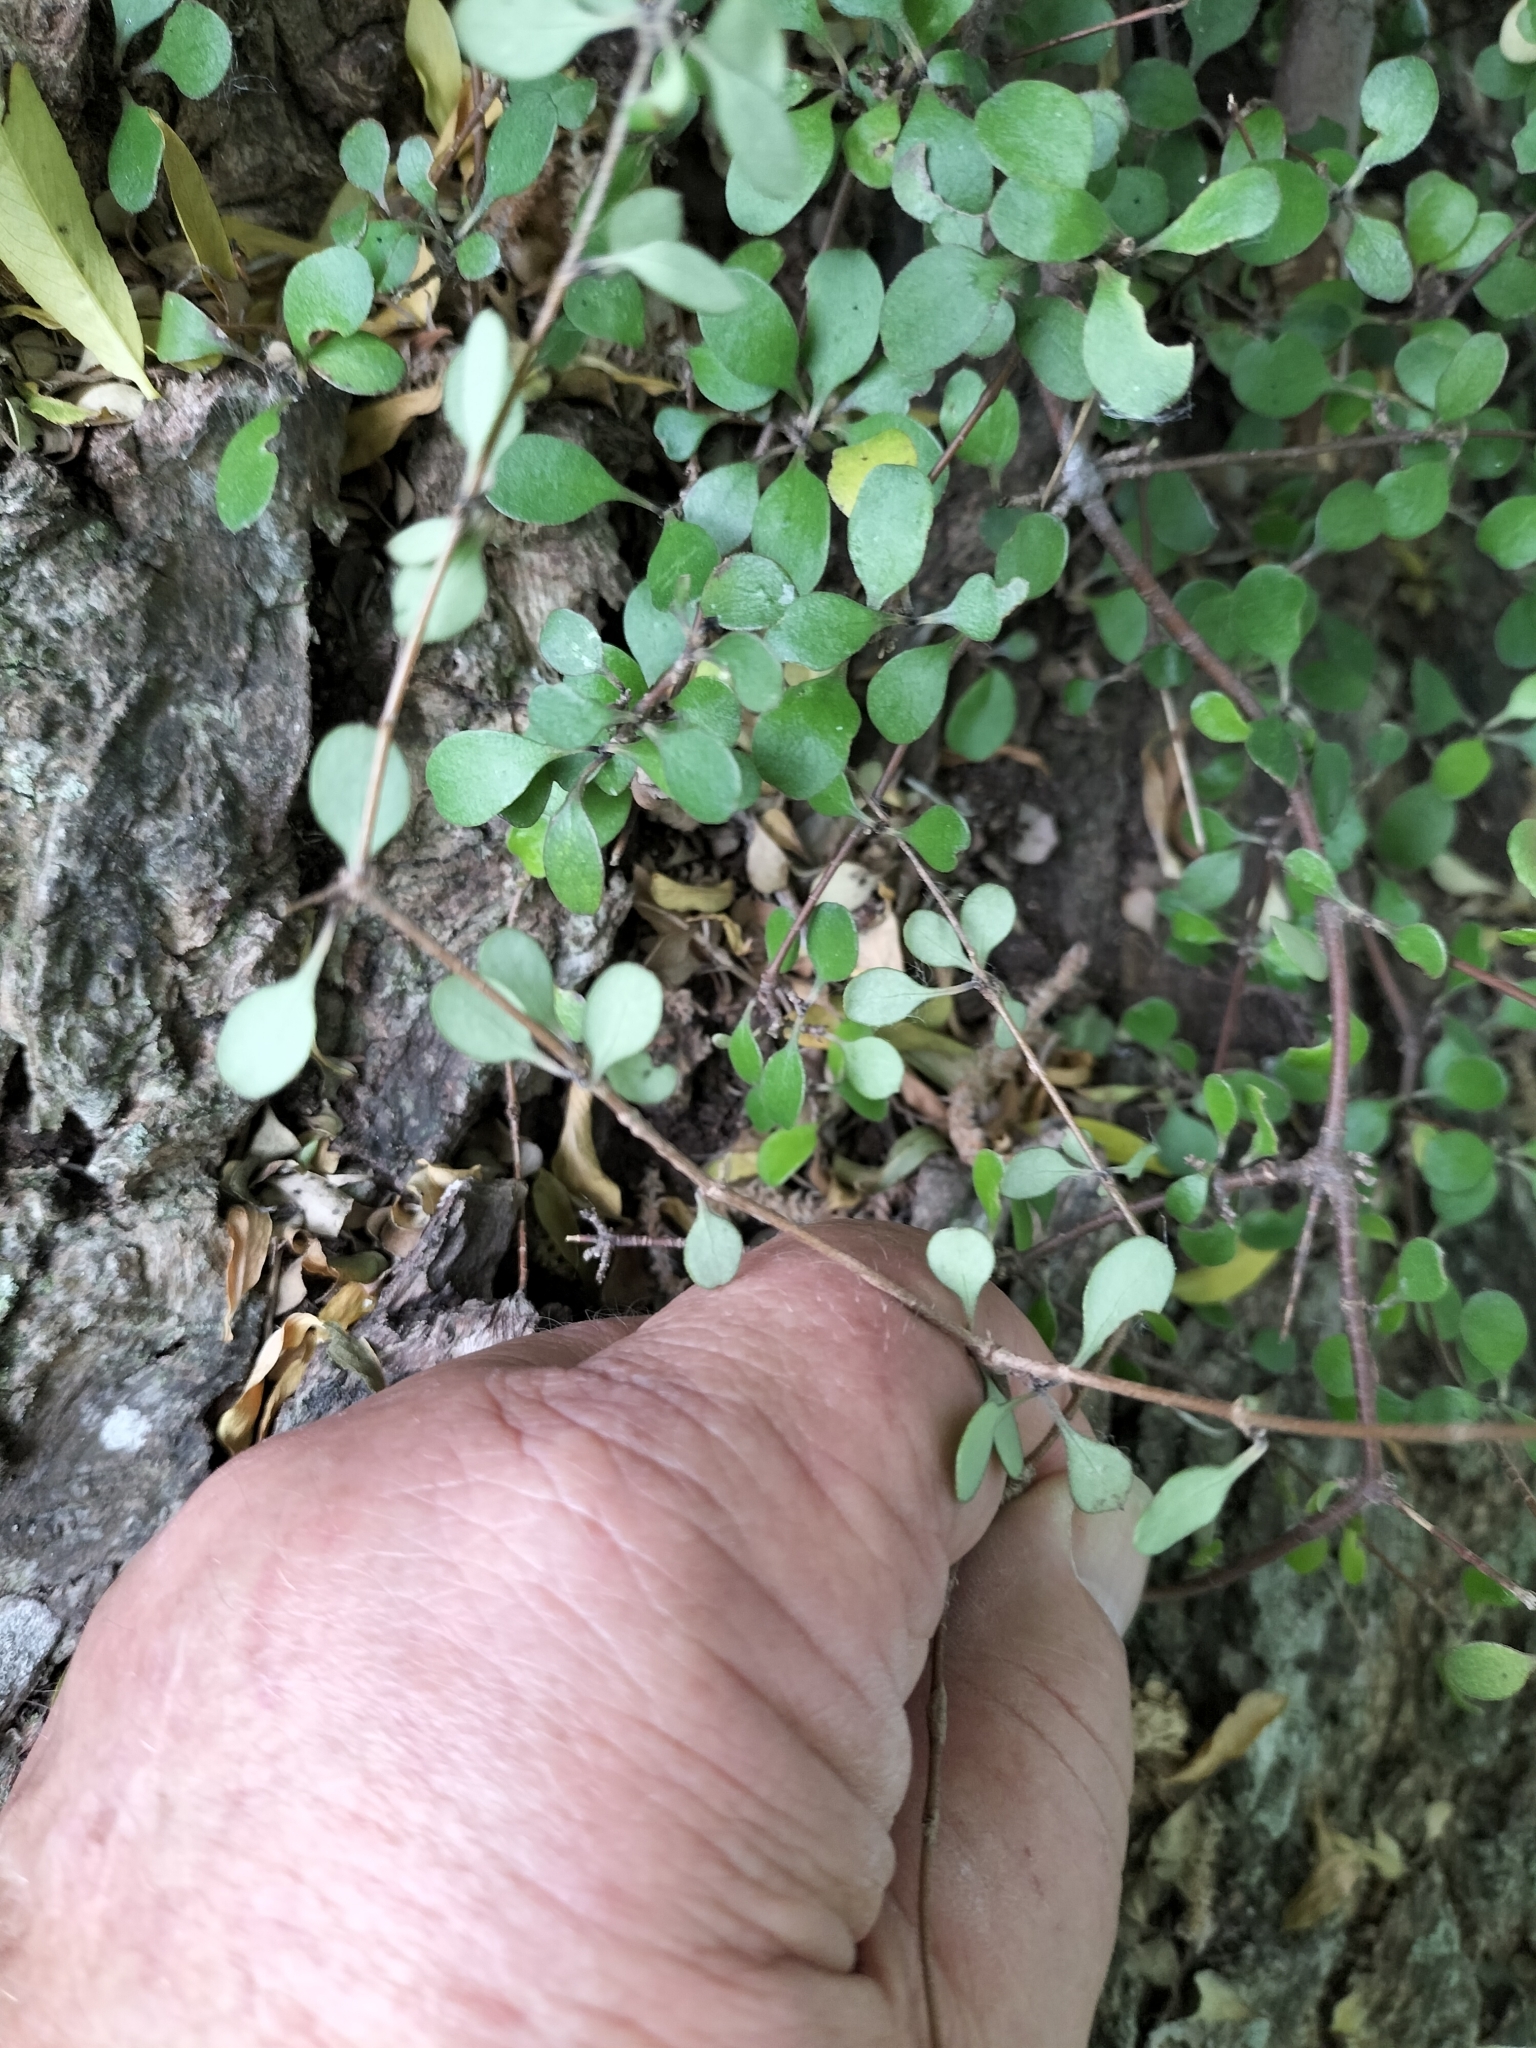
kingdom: Plantae
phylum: Tracheophyta
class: Magnoliopsida
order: Gentianales
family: Rubiaceae
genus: Coprosma
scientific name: Coprosma crassifolia
